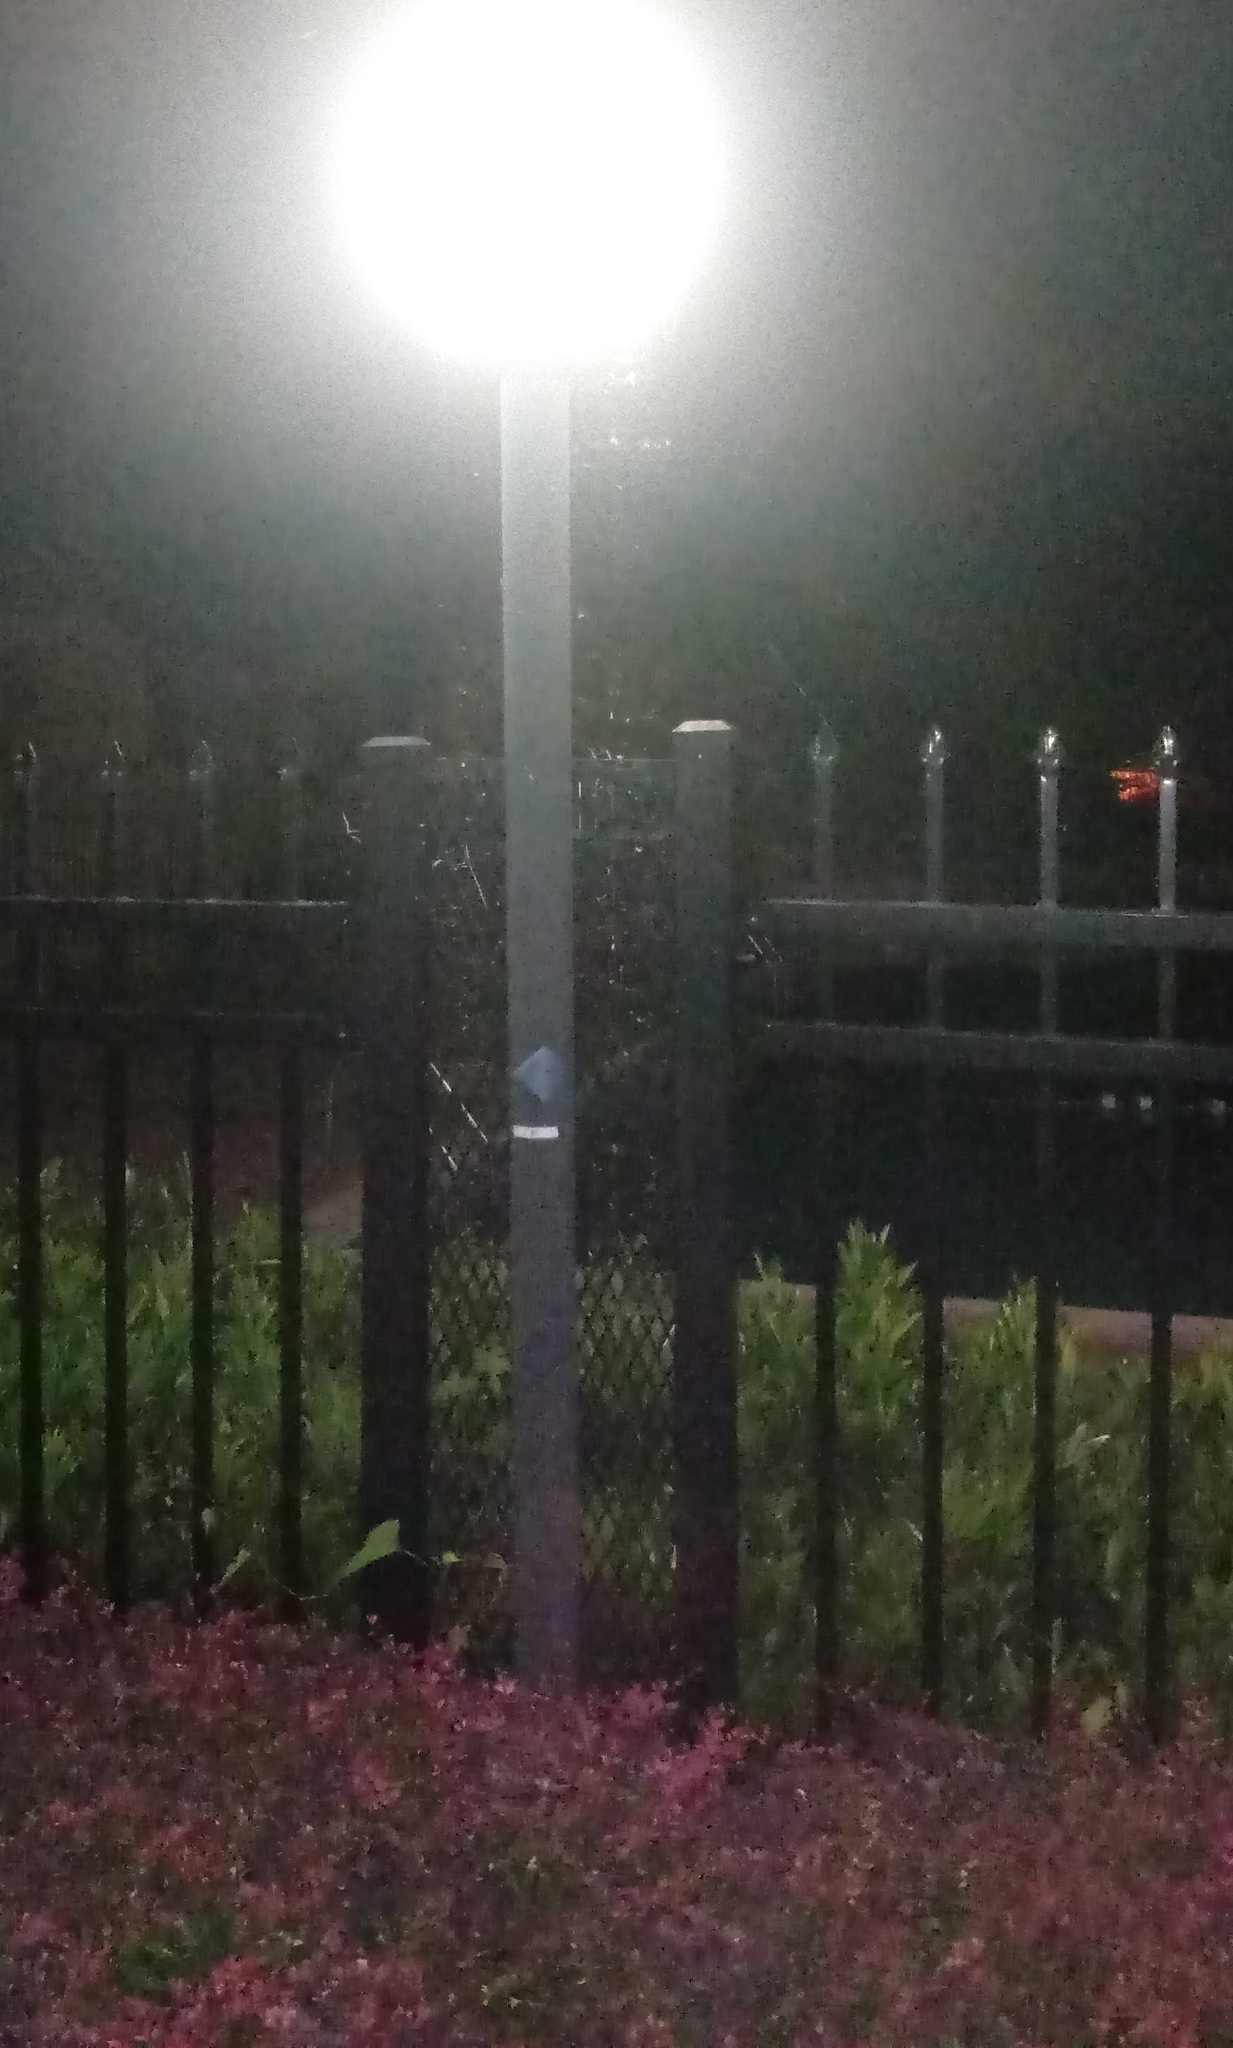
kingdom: Animalia
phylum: Arthropoda
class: Arachnida
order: Araneae
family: Araneidae
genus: Mecynogea
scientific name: Mecynogea lemniscata
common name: Orb weavers
